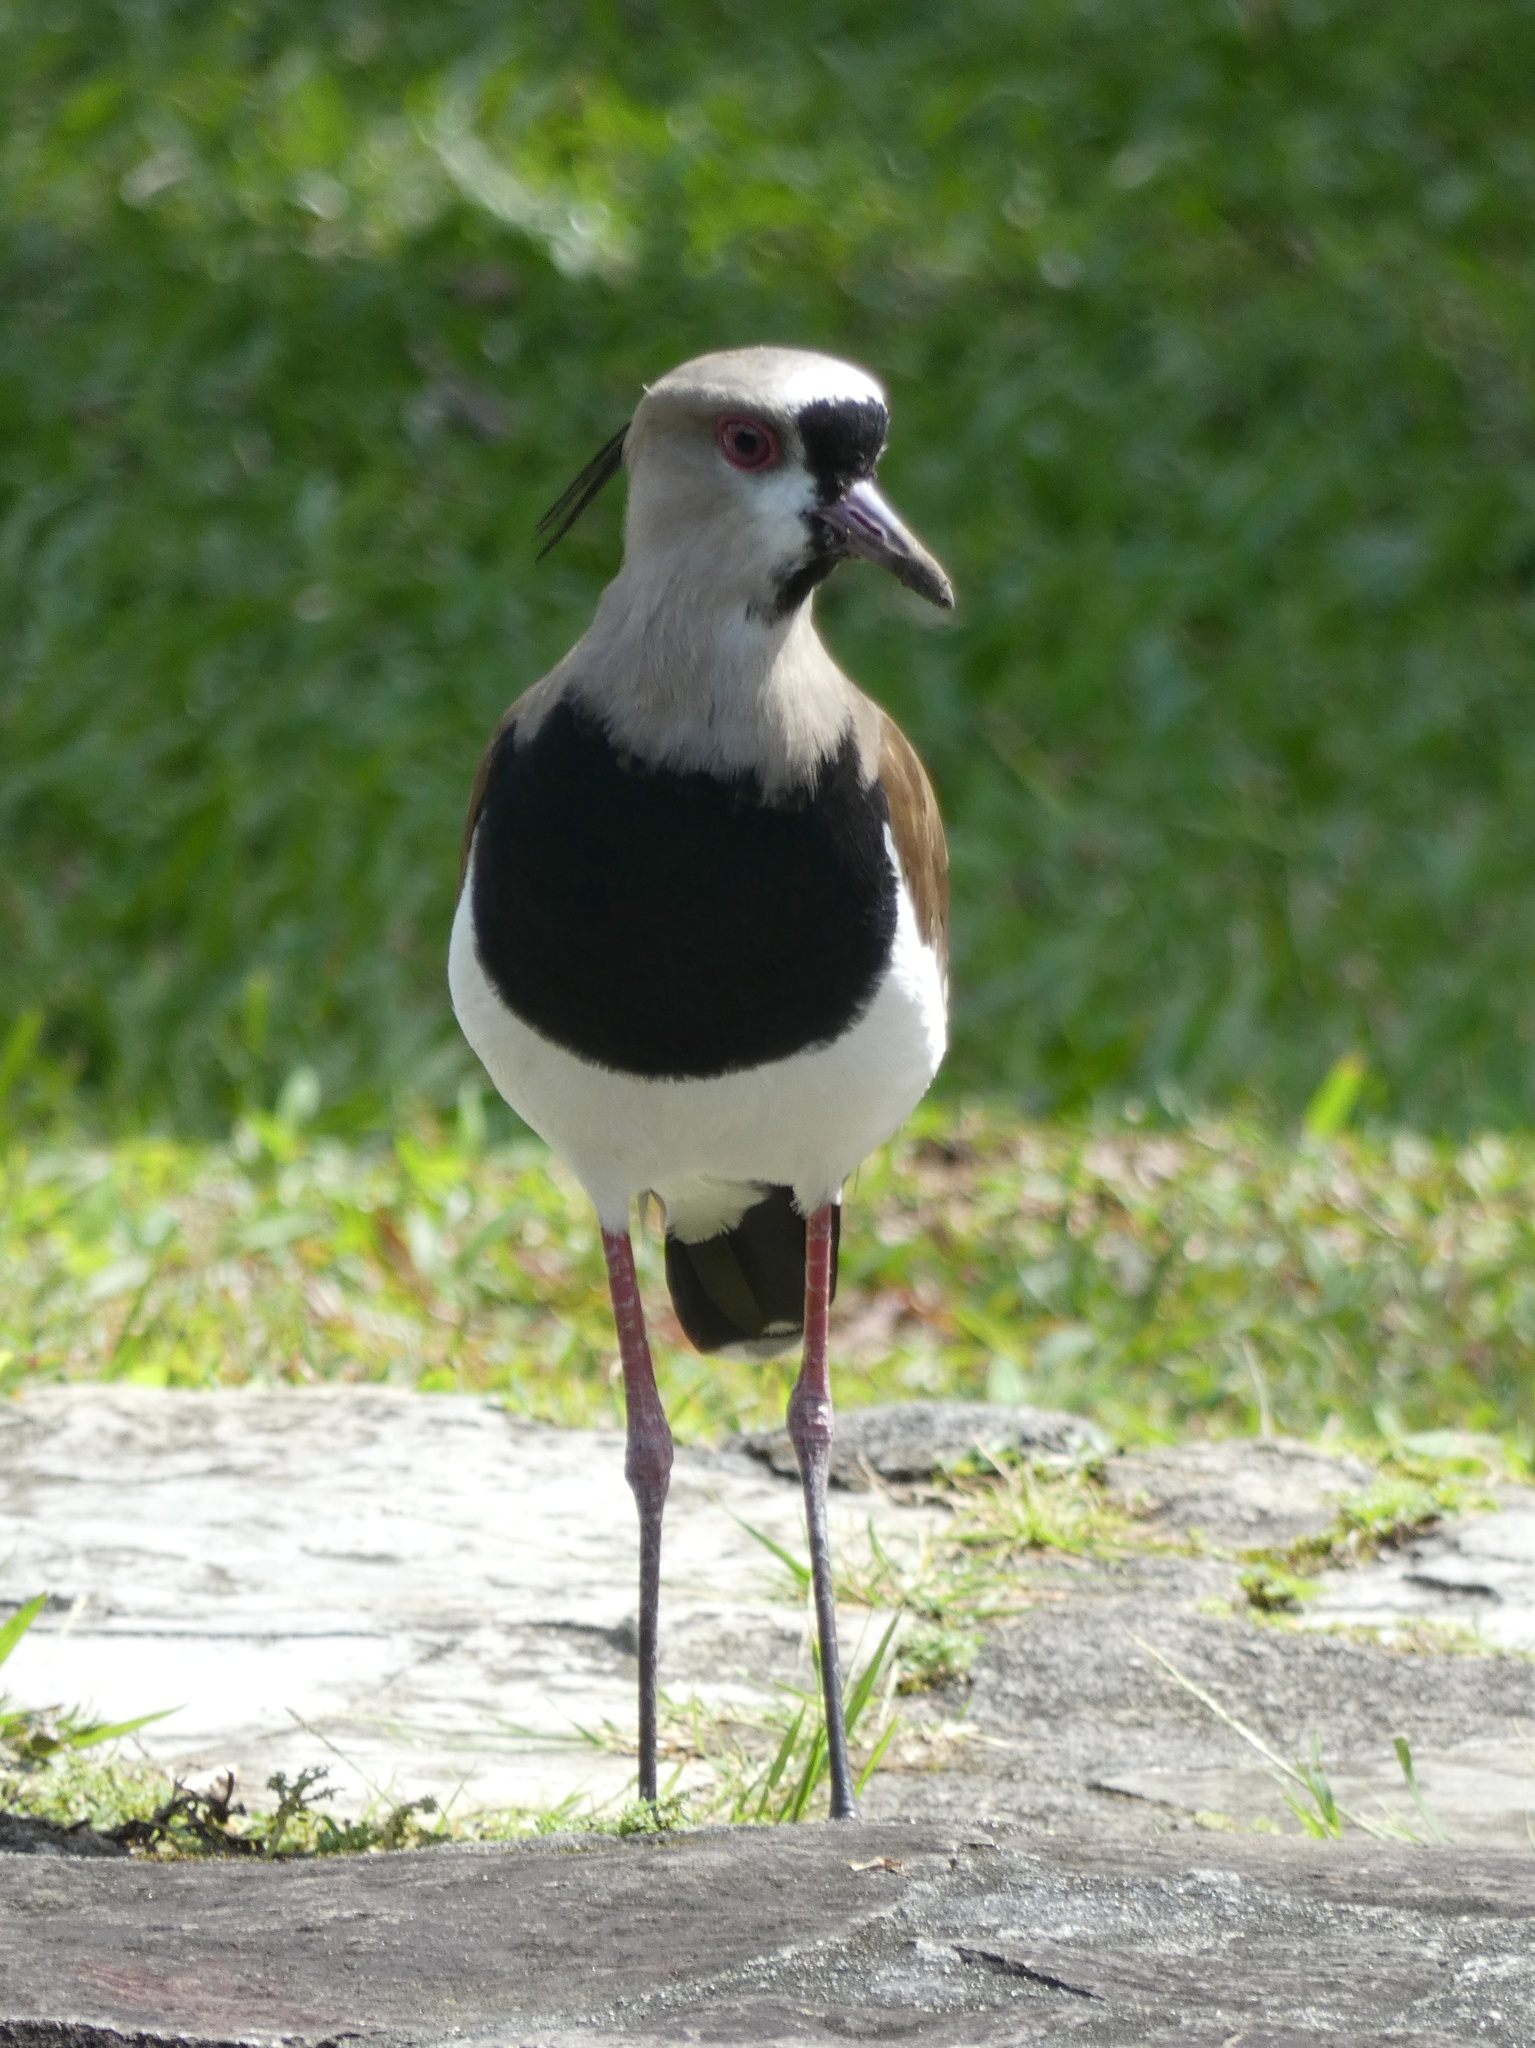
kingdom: Animalia
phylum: Chordata
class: Aves
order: Charadriiformes
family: Charadriidae
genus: Vanellus
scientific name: Vanellus chilensis
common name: Southern lapwing
